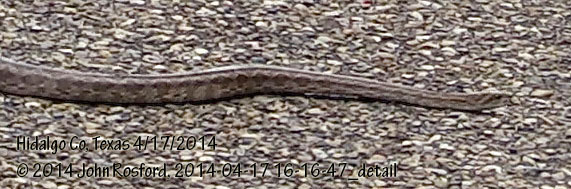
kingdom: Animalia
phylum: Chordata
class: Squamata
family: Colubridae
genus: Pantherophis
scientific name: Pantherophis emoryi
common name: Great plains rat snake
